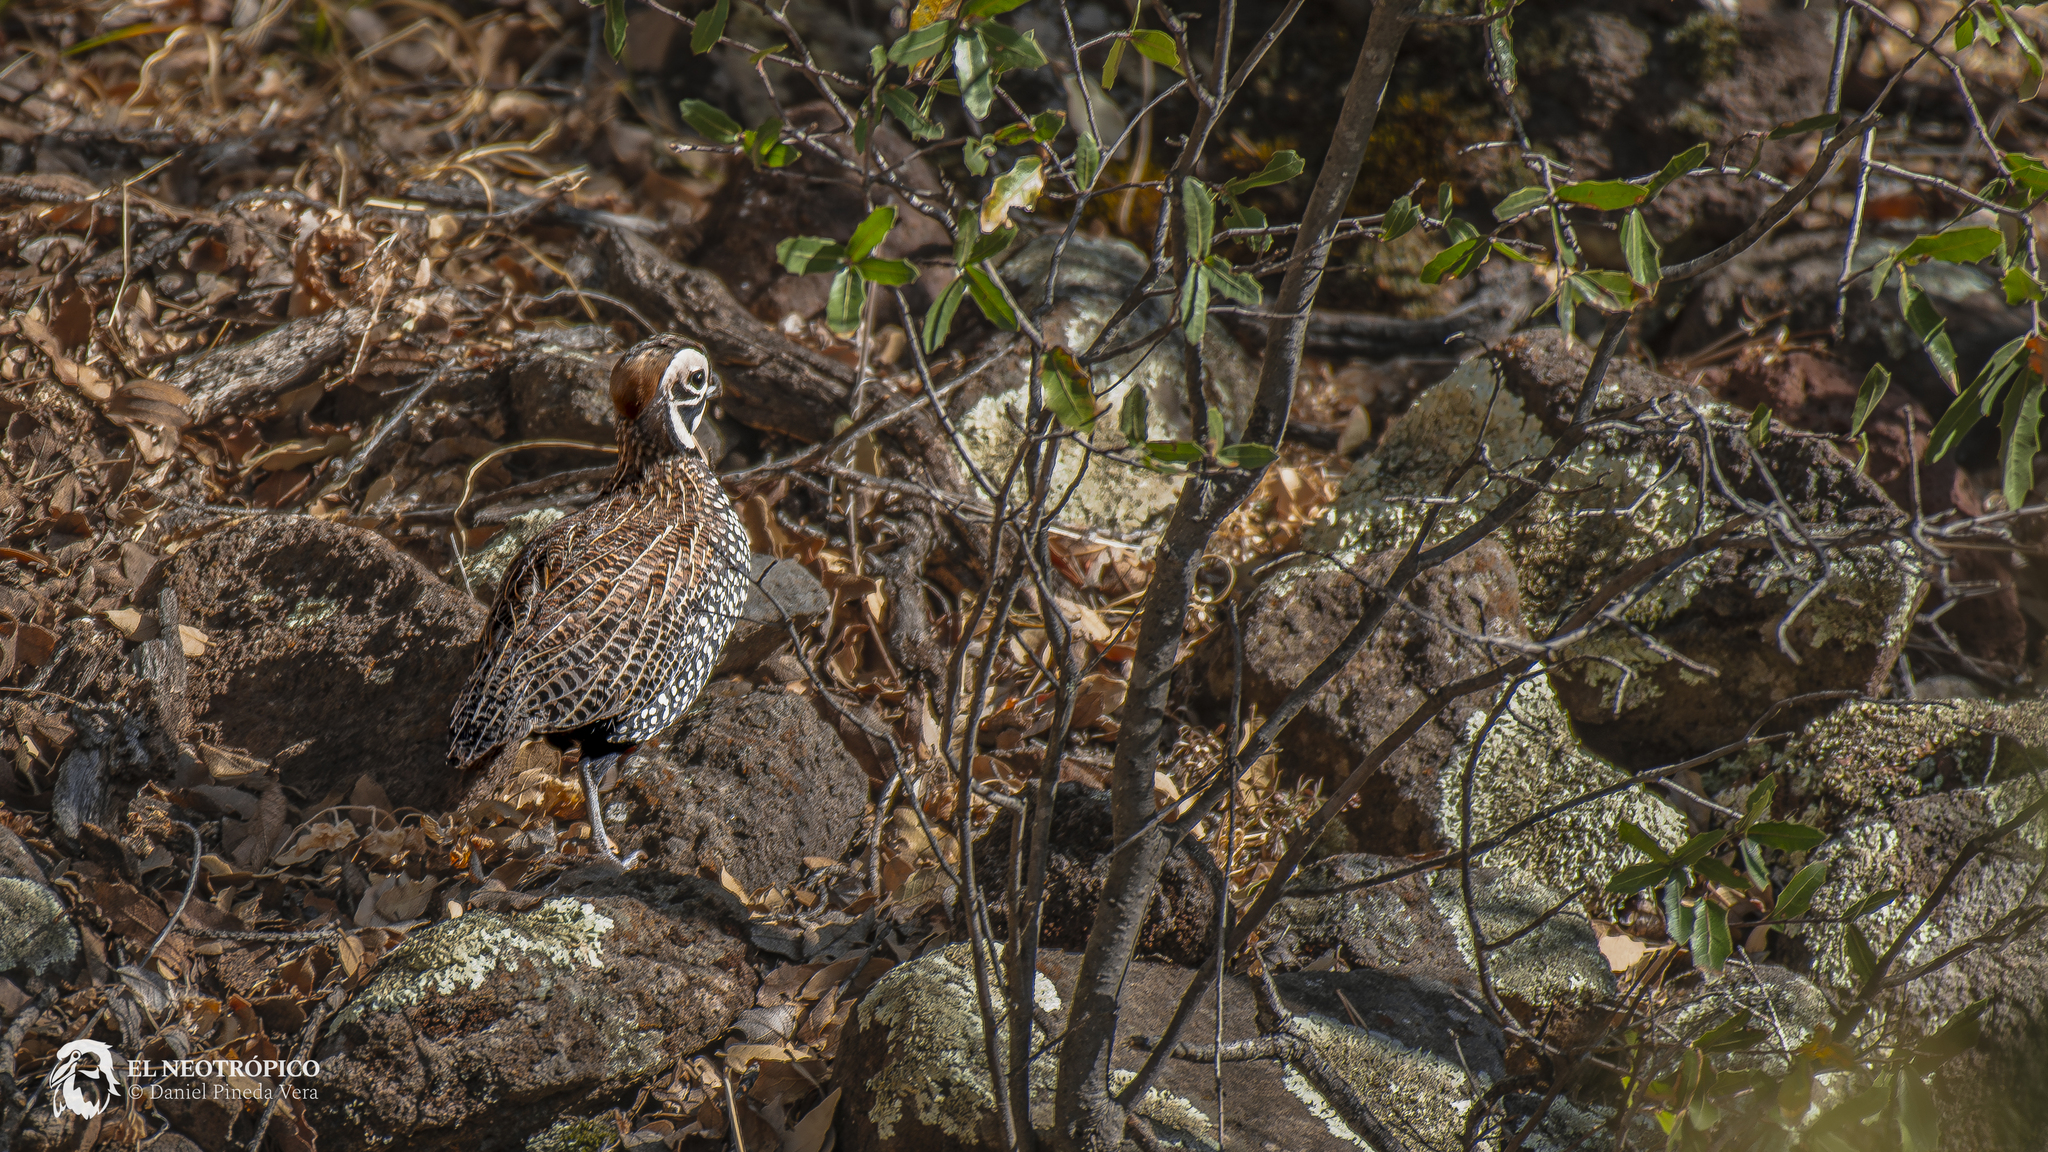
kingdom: Animalia
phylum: Chordata
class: Aves
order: Galliformes
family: Odontophoridae
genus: Cyrtonyx
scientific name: Cyrtonyx montezumae
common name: Montezuma quail
